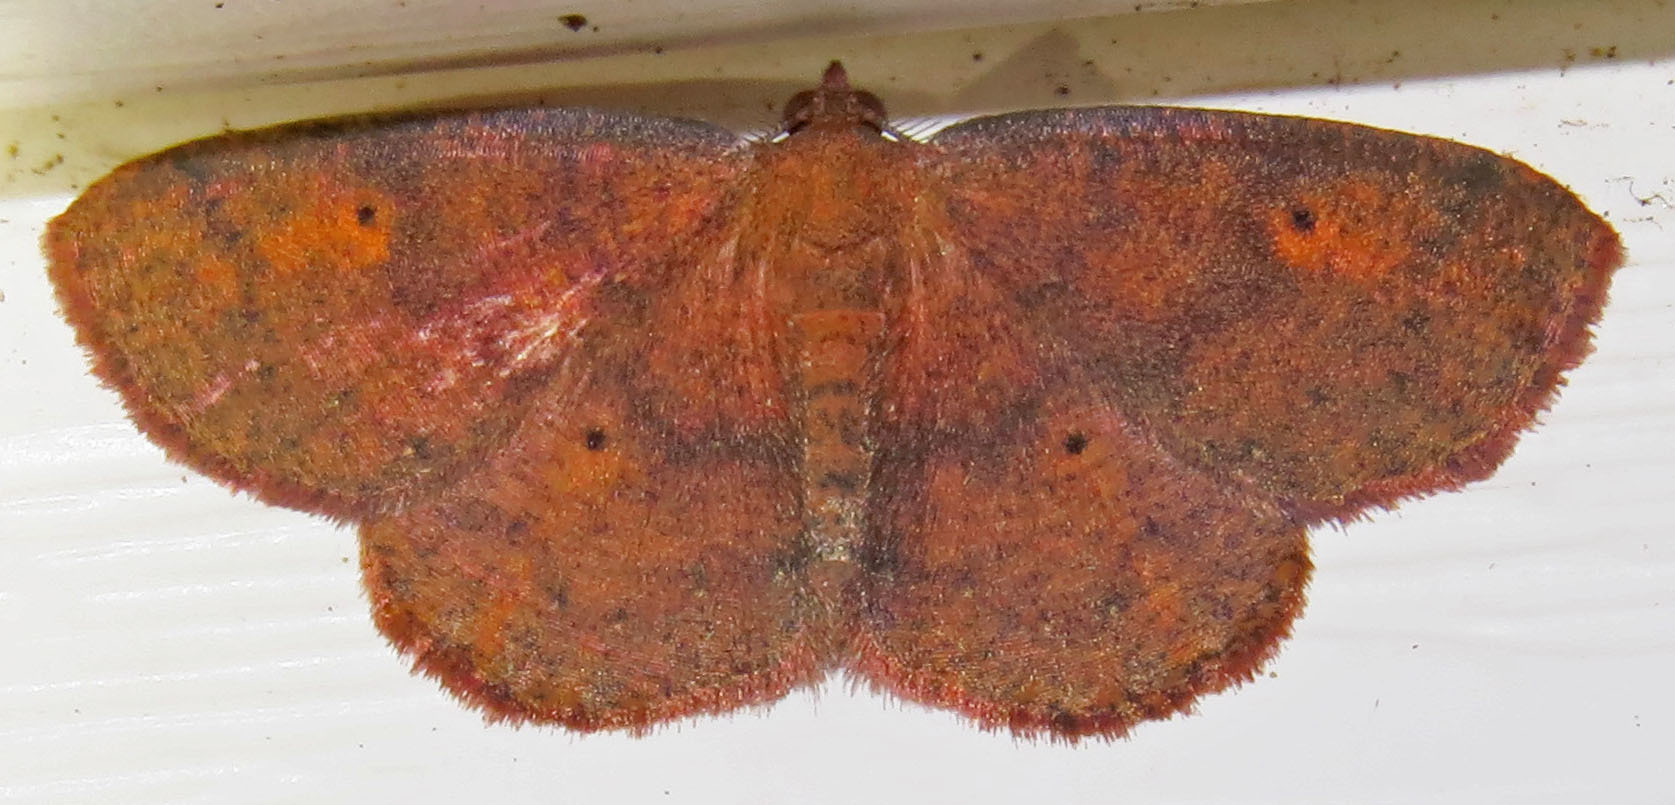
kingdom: Animalia
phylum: Arthropoda
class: Insecta
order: Lepidoptera
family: Geometridae
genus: Ilexia
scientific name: Ilexia intractata
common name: Black-dotted ruddy moth
